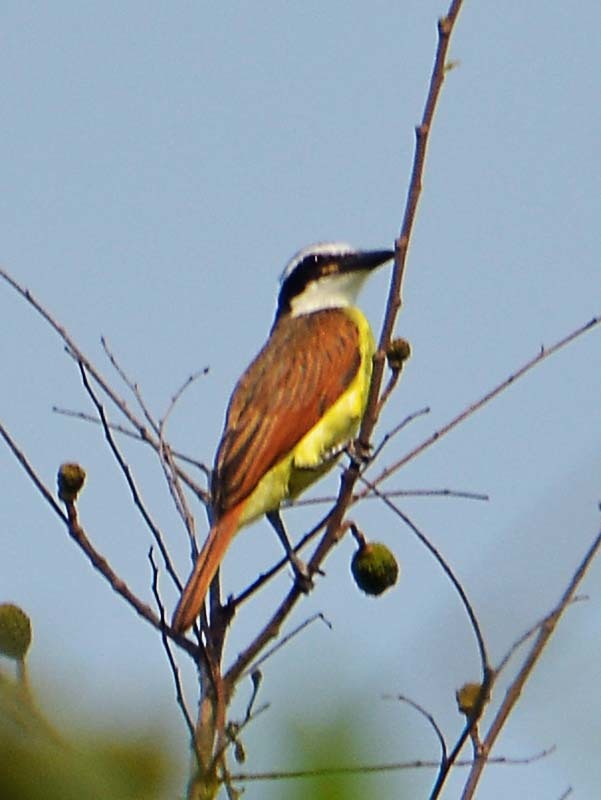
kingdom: Animalia
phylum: Chordata
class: Aves
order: Passeriformes
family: Tyrannidae
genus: Pitangus
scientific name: Pitangus sulphuratus
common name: Great kiskadee
